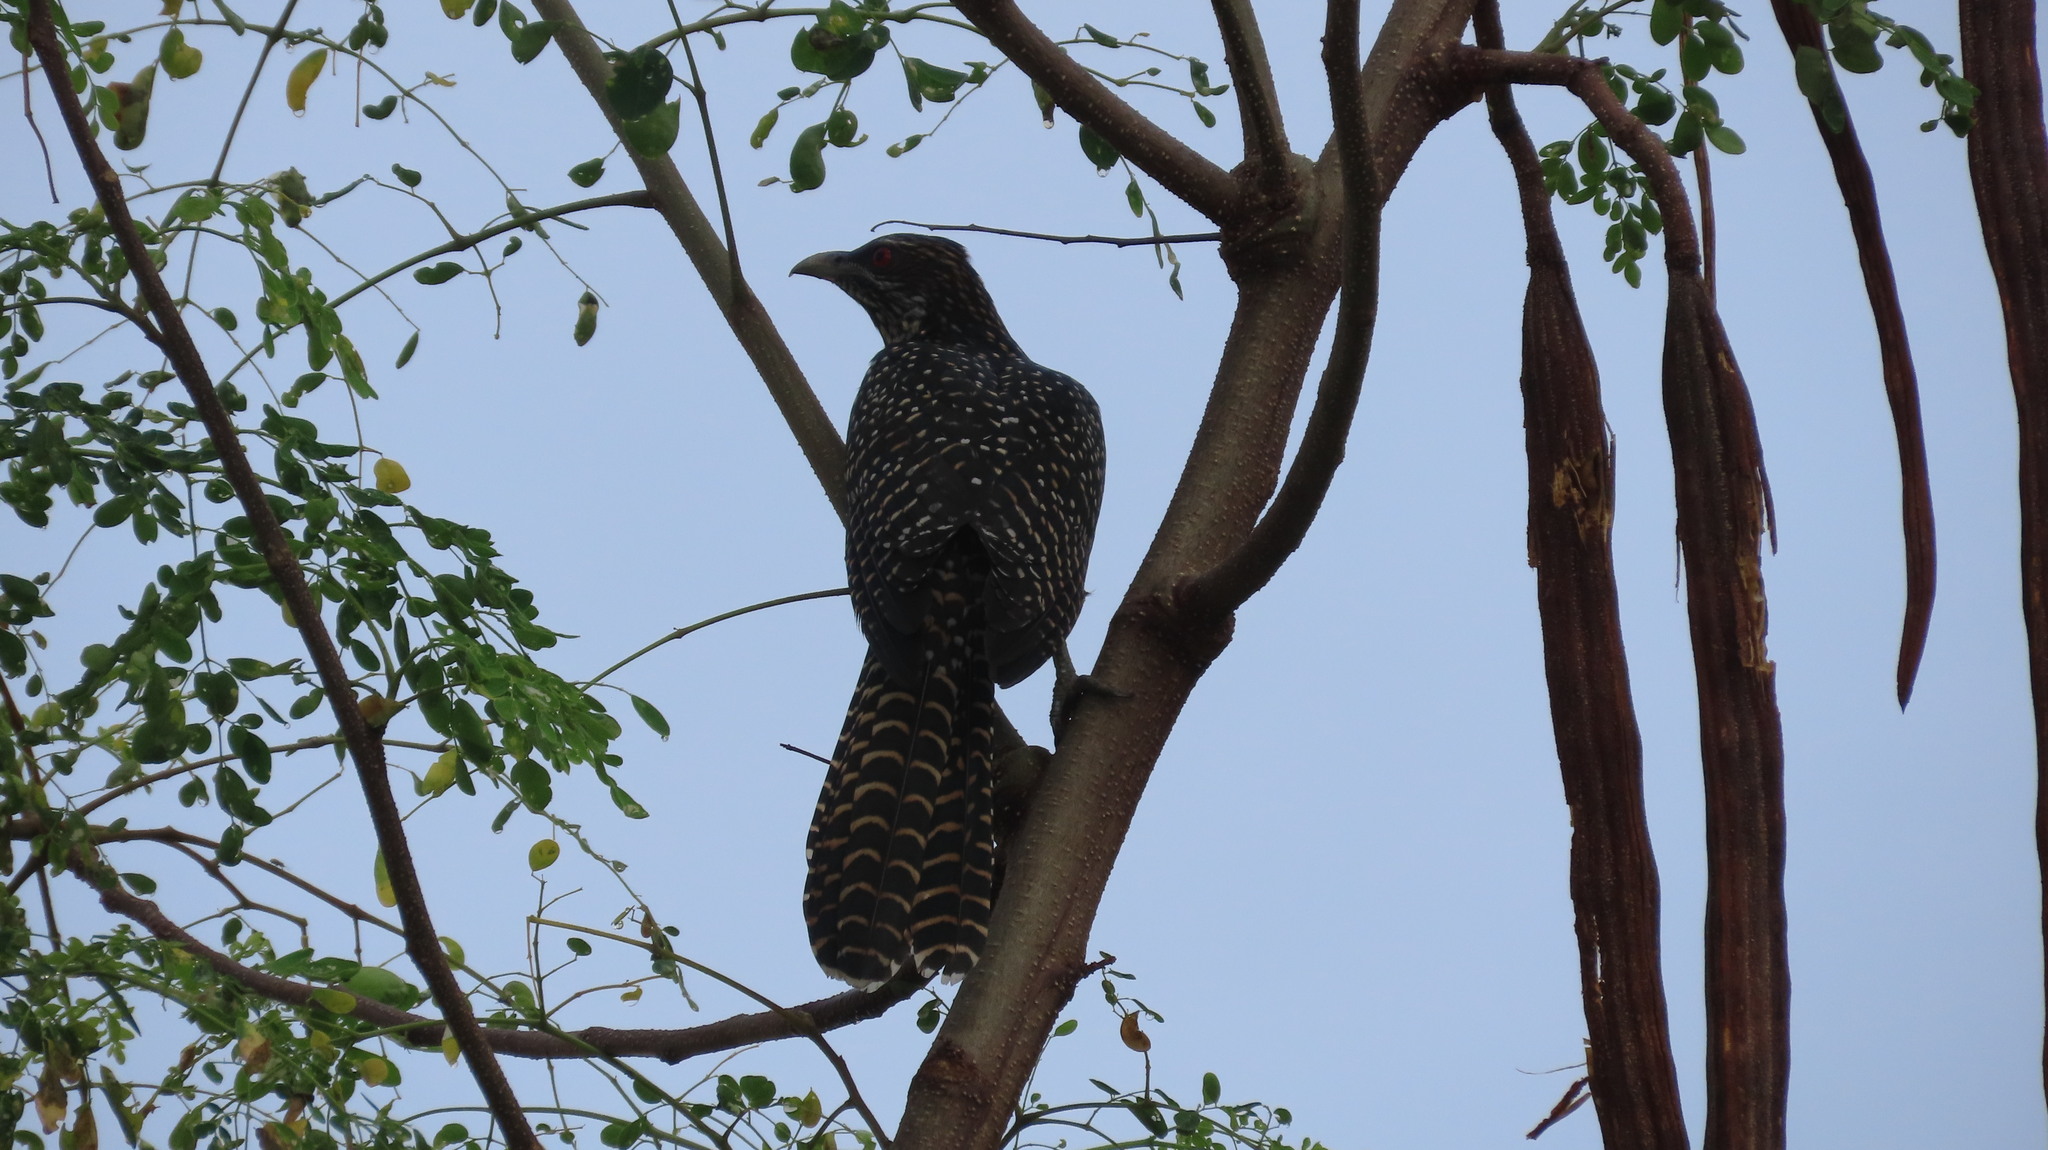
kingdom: Animalia
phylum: Chordata
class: Aves
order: Cuculiformes
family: Cuculidae
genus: Eudynamys
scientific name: Eudynamys scolopaceus
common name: Asian koel
